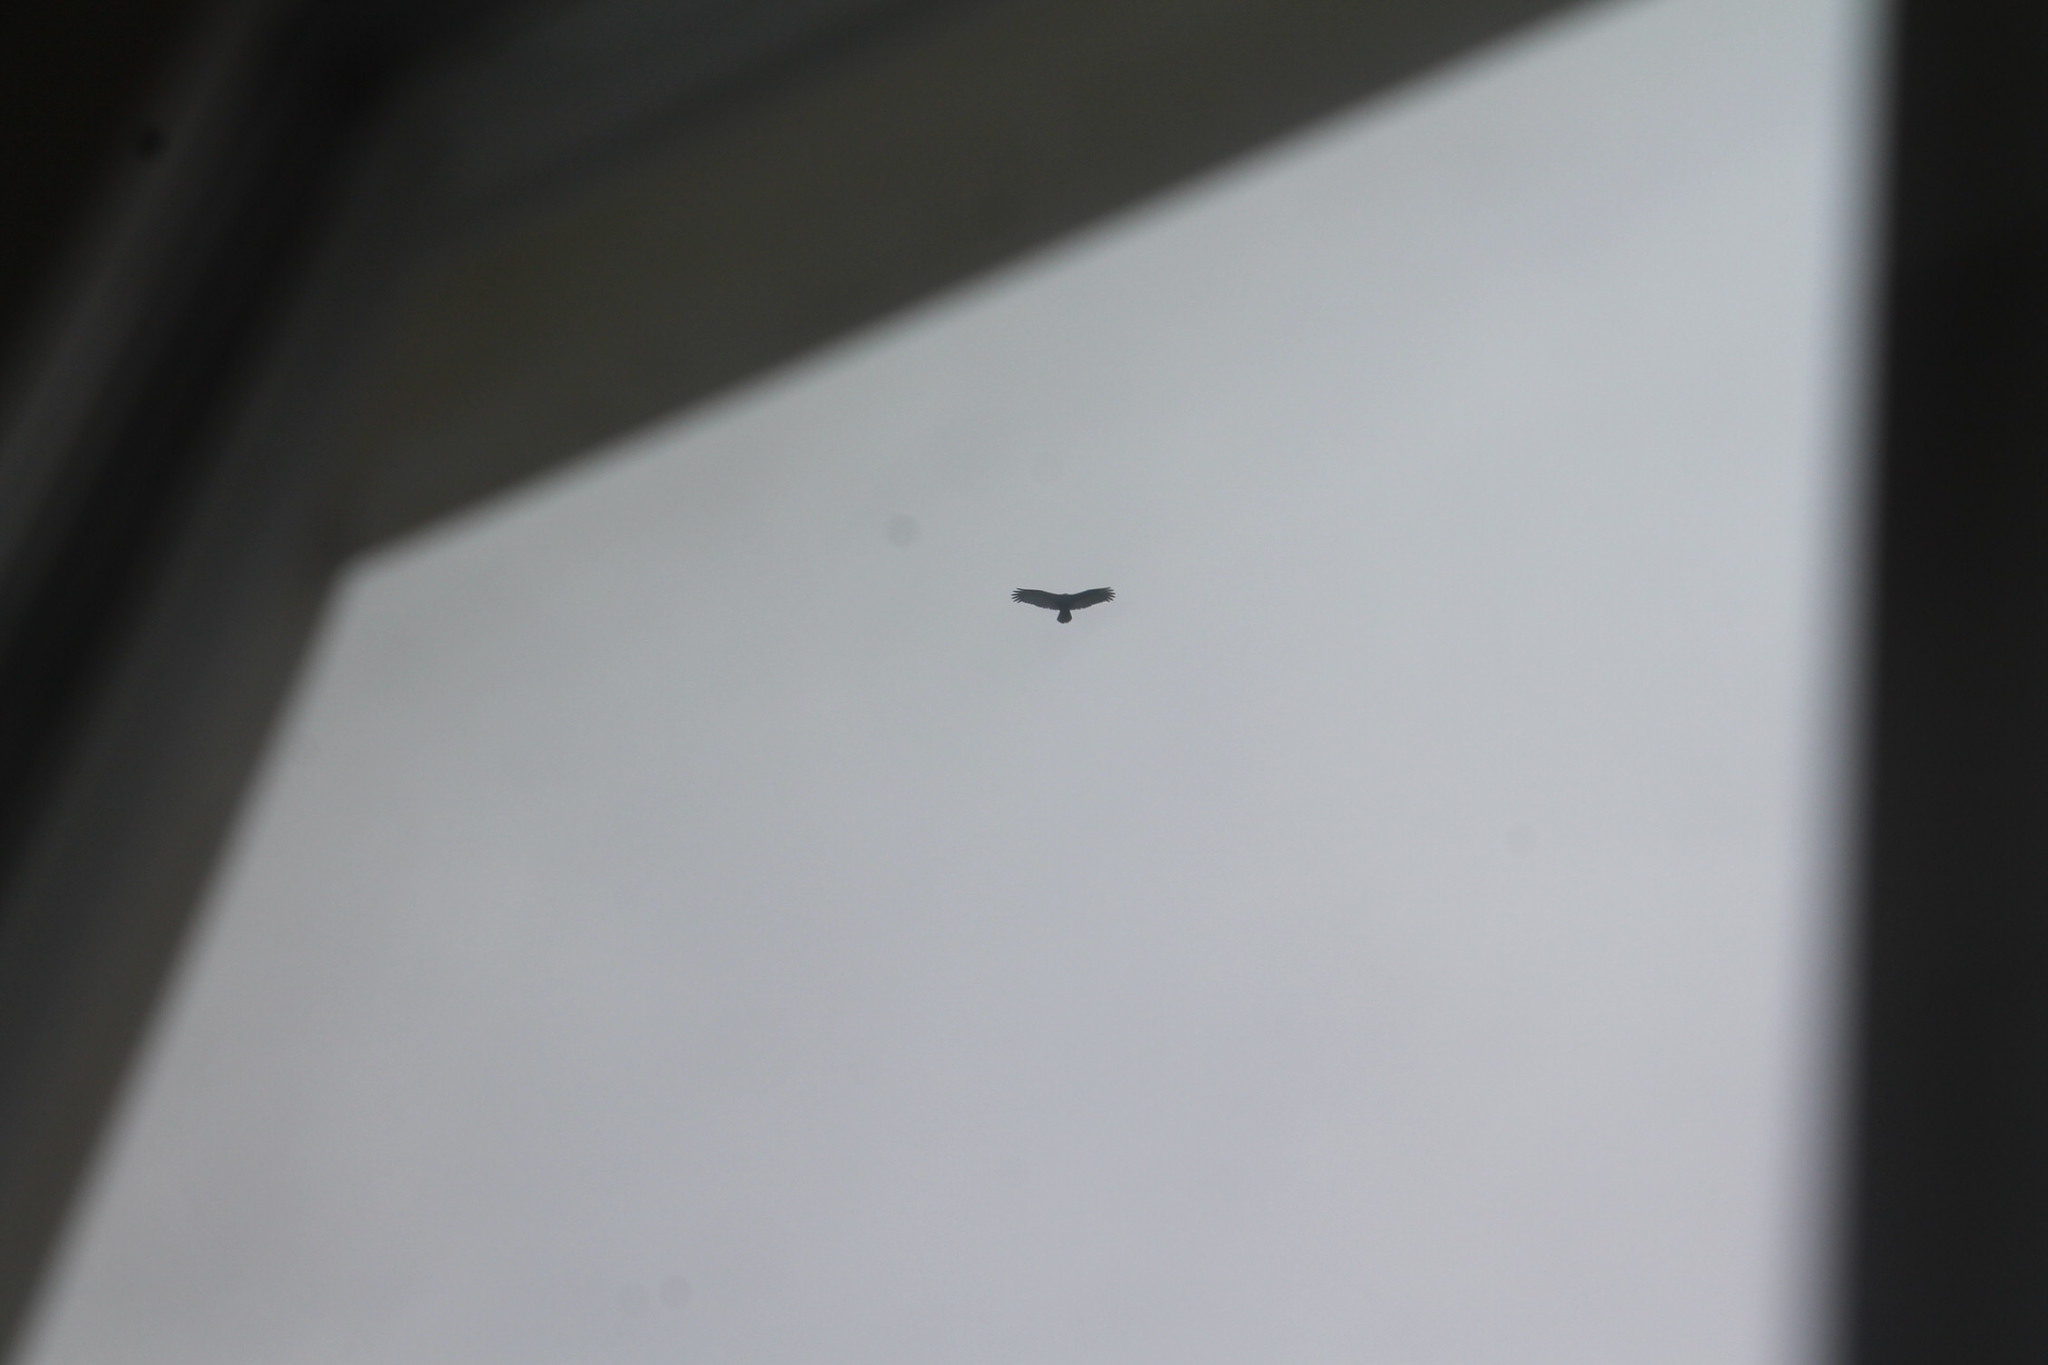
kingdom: Animalia
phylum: Chordata
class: Aves
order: Accipitriformes
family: Cathartidae
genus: Cathartes
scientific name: Cathartes aura
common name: Turkey vulture
